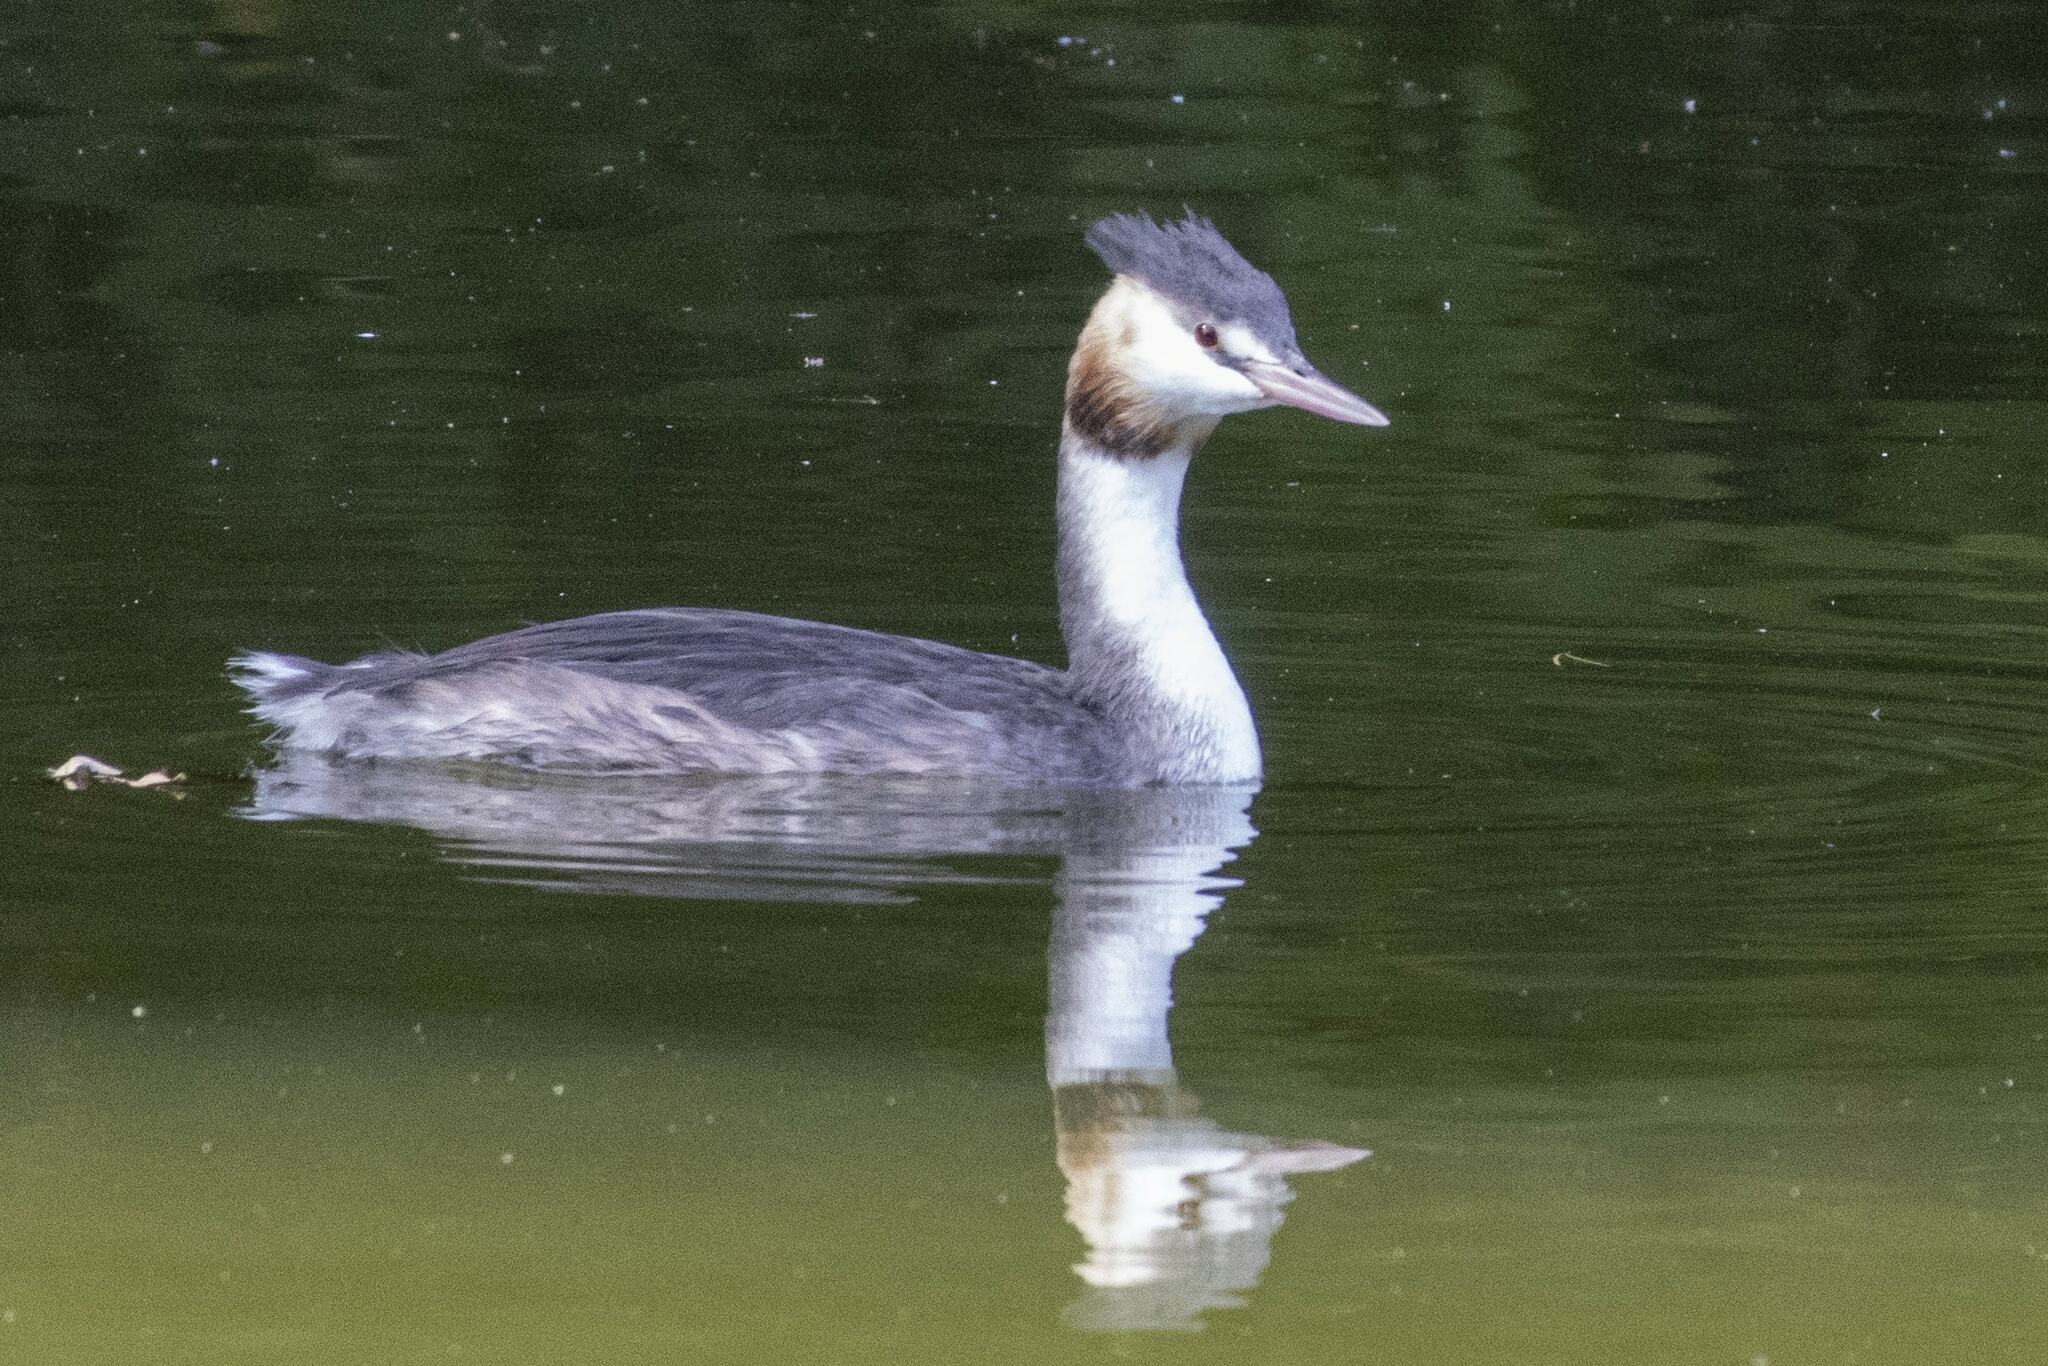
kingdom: Animalia
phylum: Chordata
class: Aves
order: Podicipediformes
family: Podicipedidae
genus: Podiceps
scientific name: Podiceps cristatus
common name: Great crested grebe
